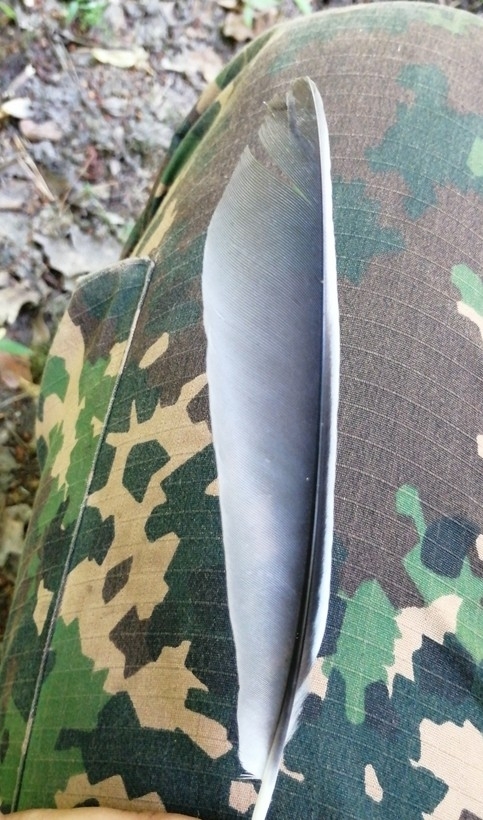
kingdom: Animalia
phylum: Chordata
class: Aves
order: Passeriformes
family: Corvidae
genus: Garrulus
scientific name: Garrulus glandarius
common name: Eurasian jay
